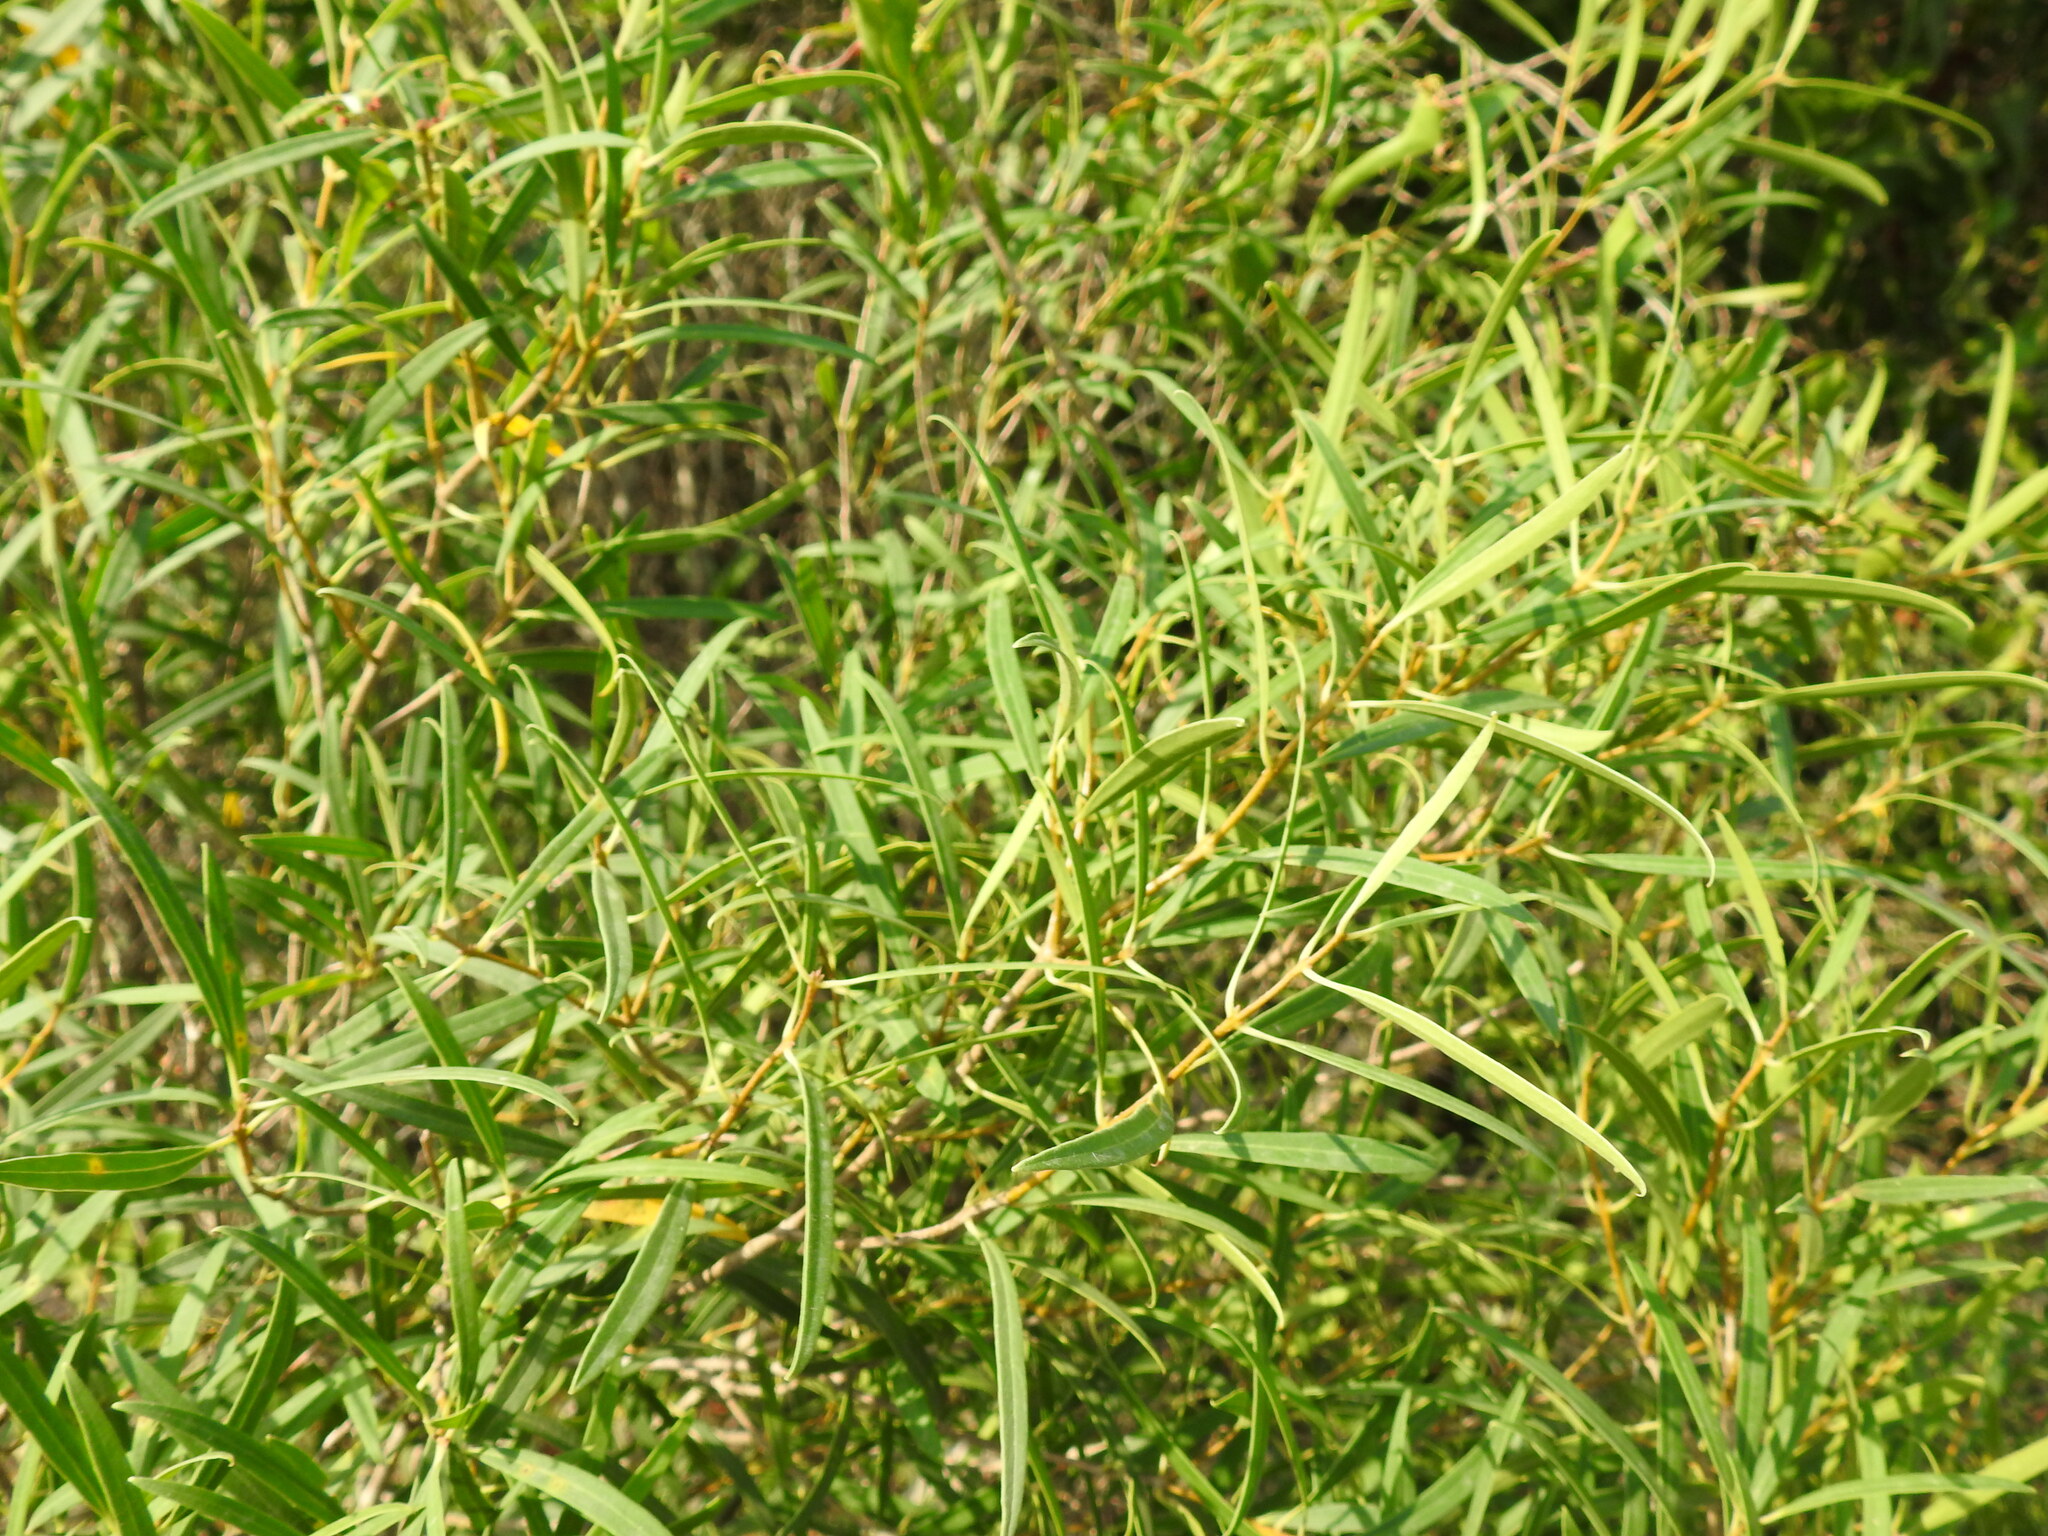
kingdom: Plantae
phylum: Tracheophyta
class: Magnoliopsida
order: Lamiales
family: Oleaceae
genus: Phillyrea
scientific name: Phillyrea angustifolia
